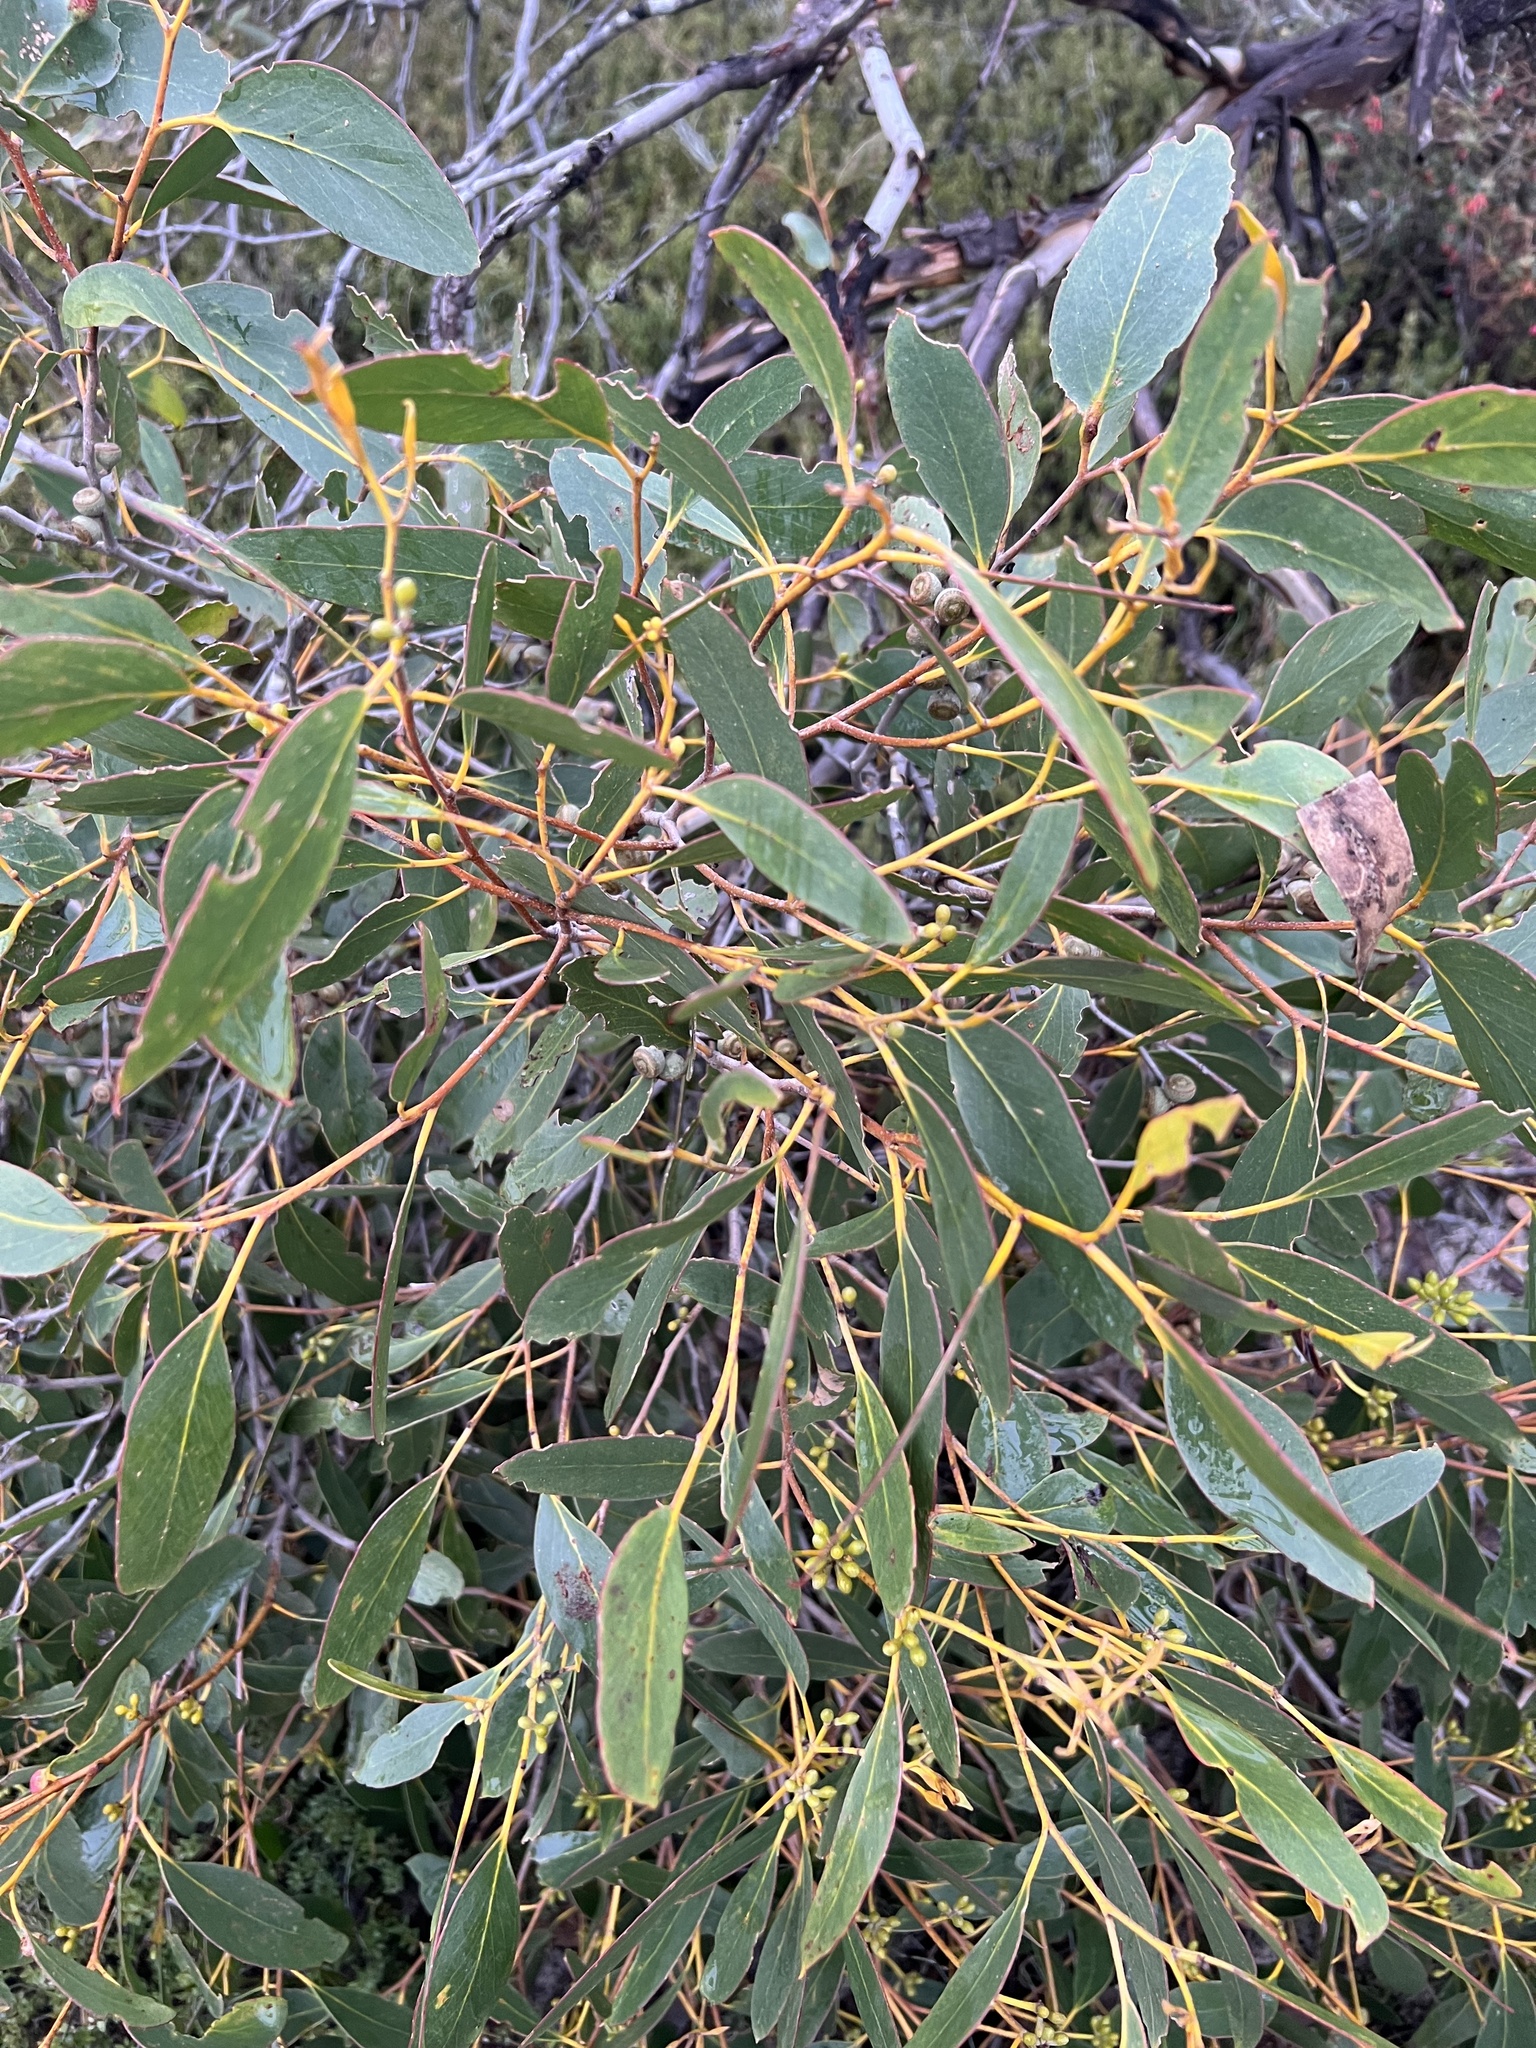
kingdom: Plantae
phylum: Tracheophyta
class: Magnoliopsida
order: Myrtales
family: Myrtaceae
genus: Eucalyptus
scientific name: Eucalyptus arenacea
